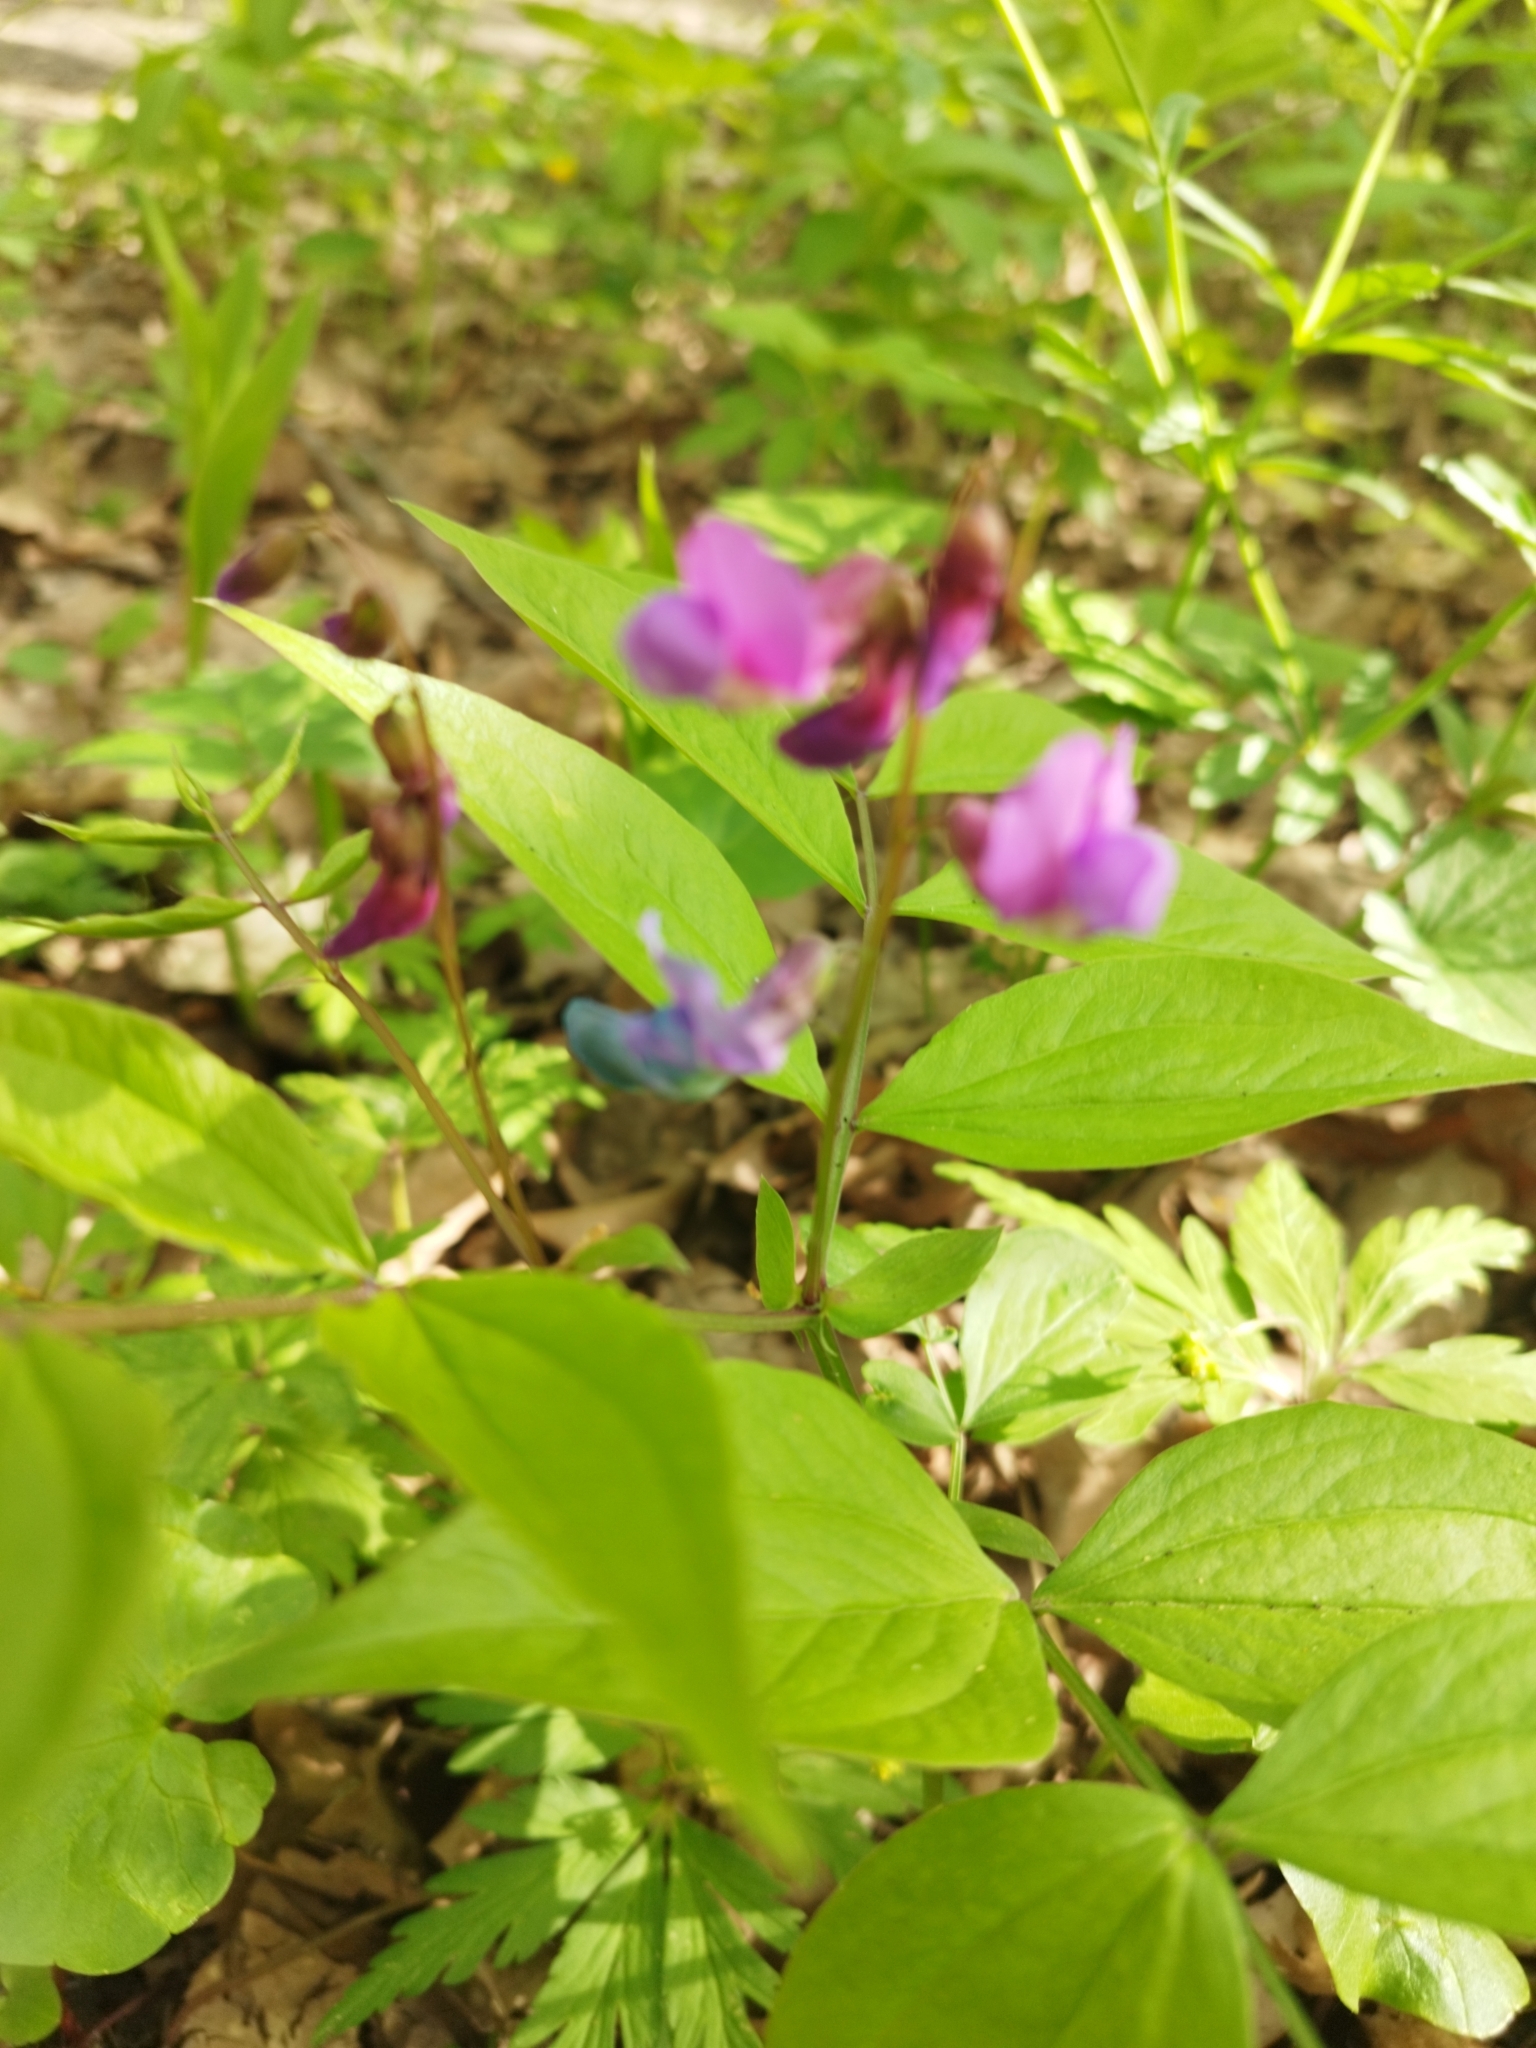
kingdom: Plantae
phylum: Tracheophyta
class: Magnoliopsida
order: Fabales
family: Fabaceae
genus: Lathyrus
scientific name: Lathyrus vernus
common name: Spring pea
